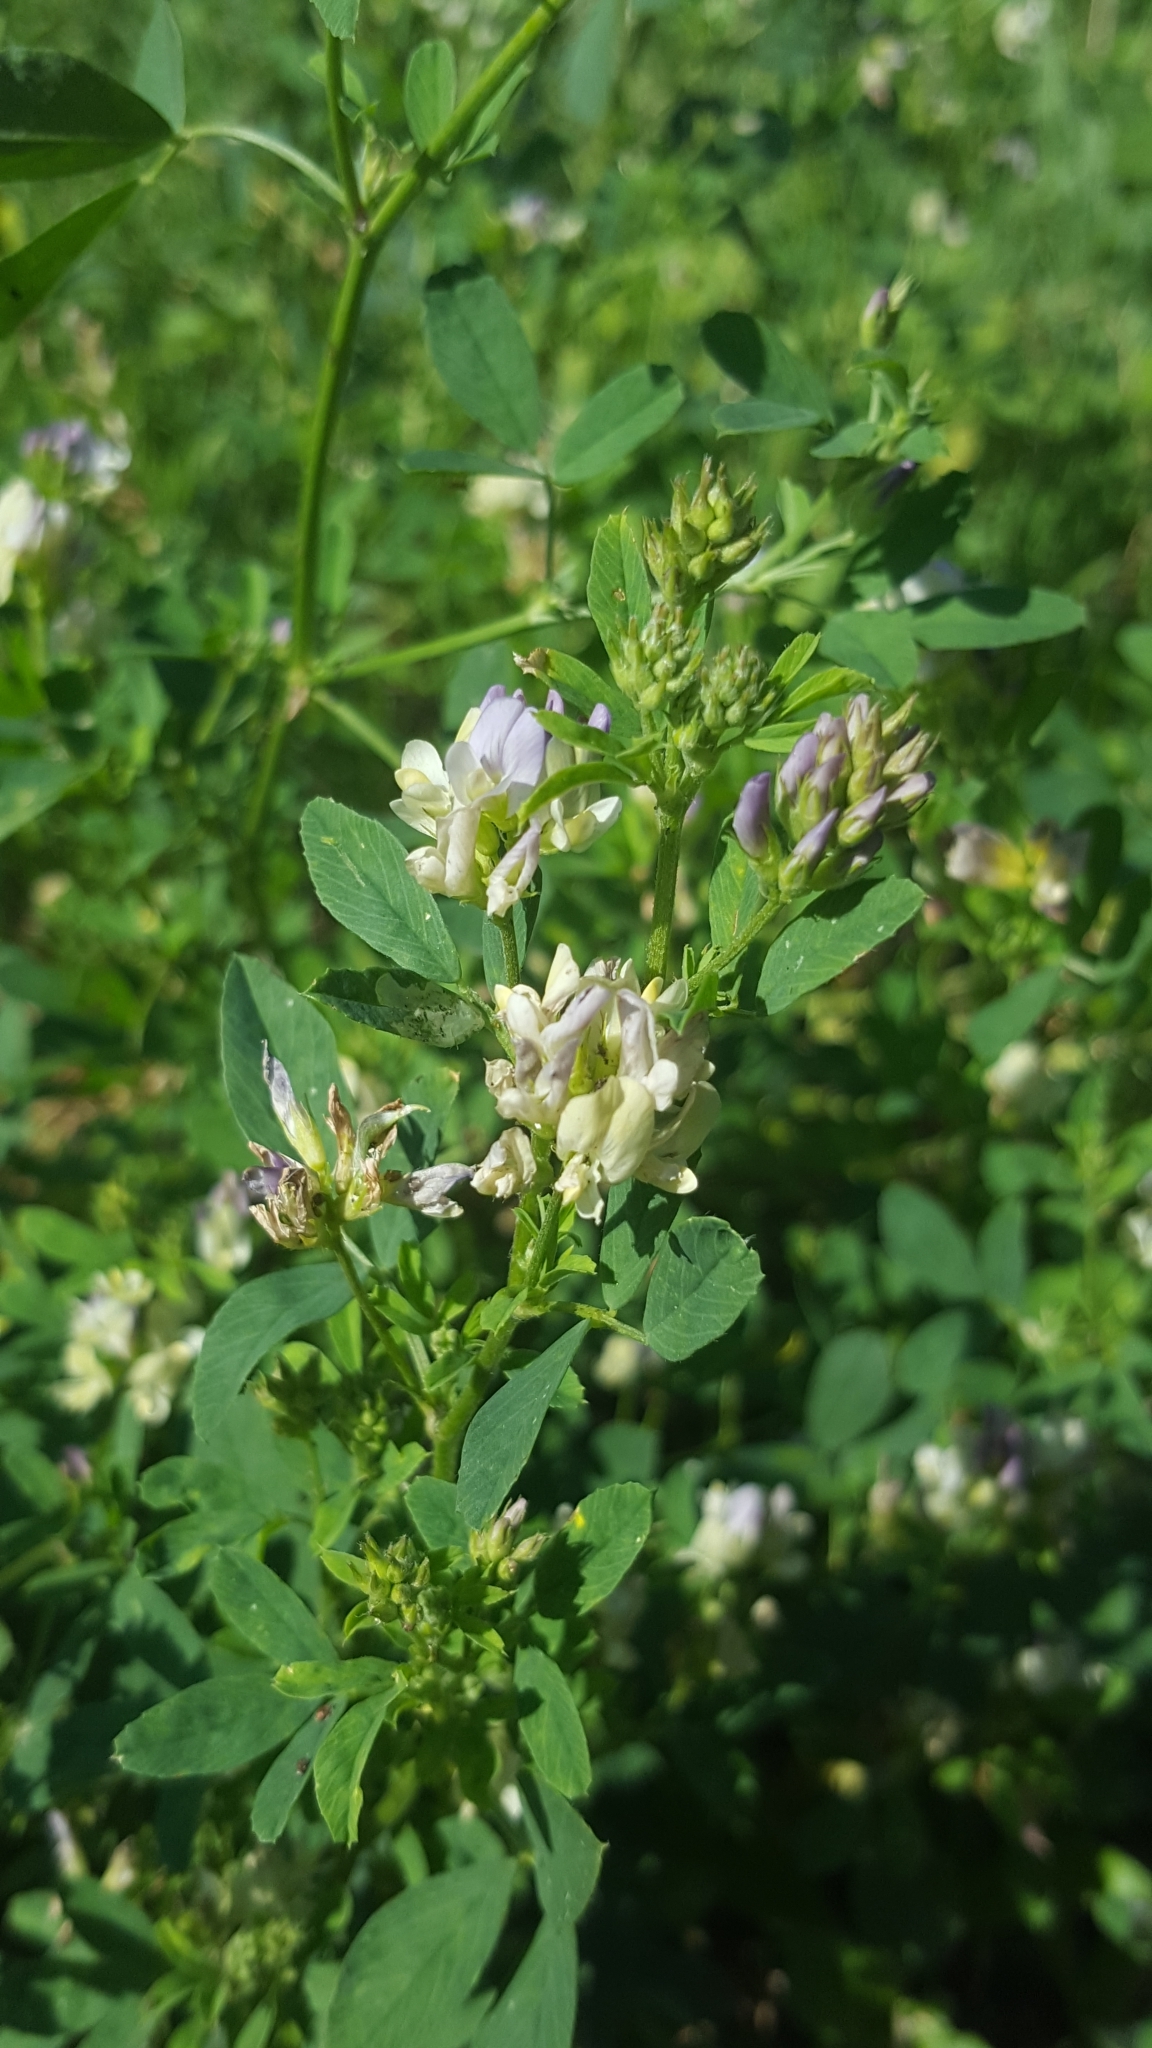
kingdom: Plantae
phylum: Tracheophyta
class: Magnoliopsida
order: Fabales
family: Fabaceae
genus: Medicago
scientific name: Medicago varia
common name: Sand lucerne
